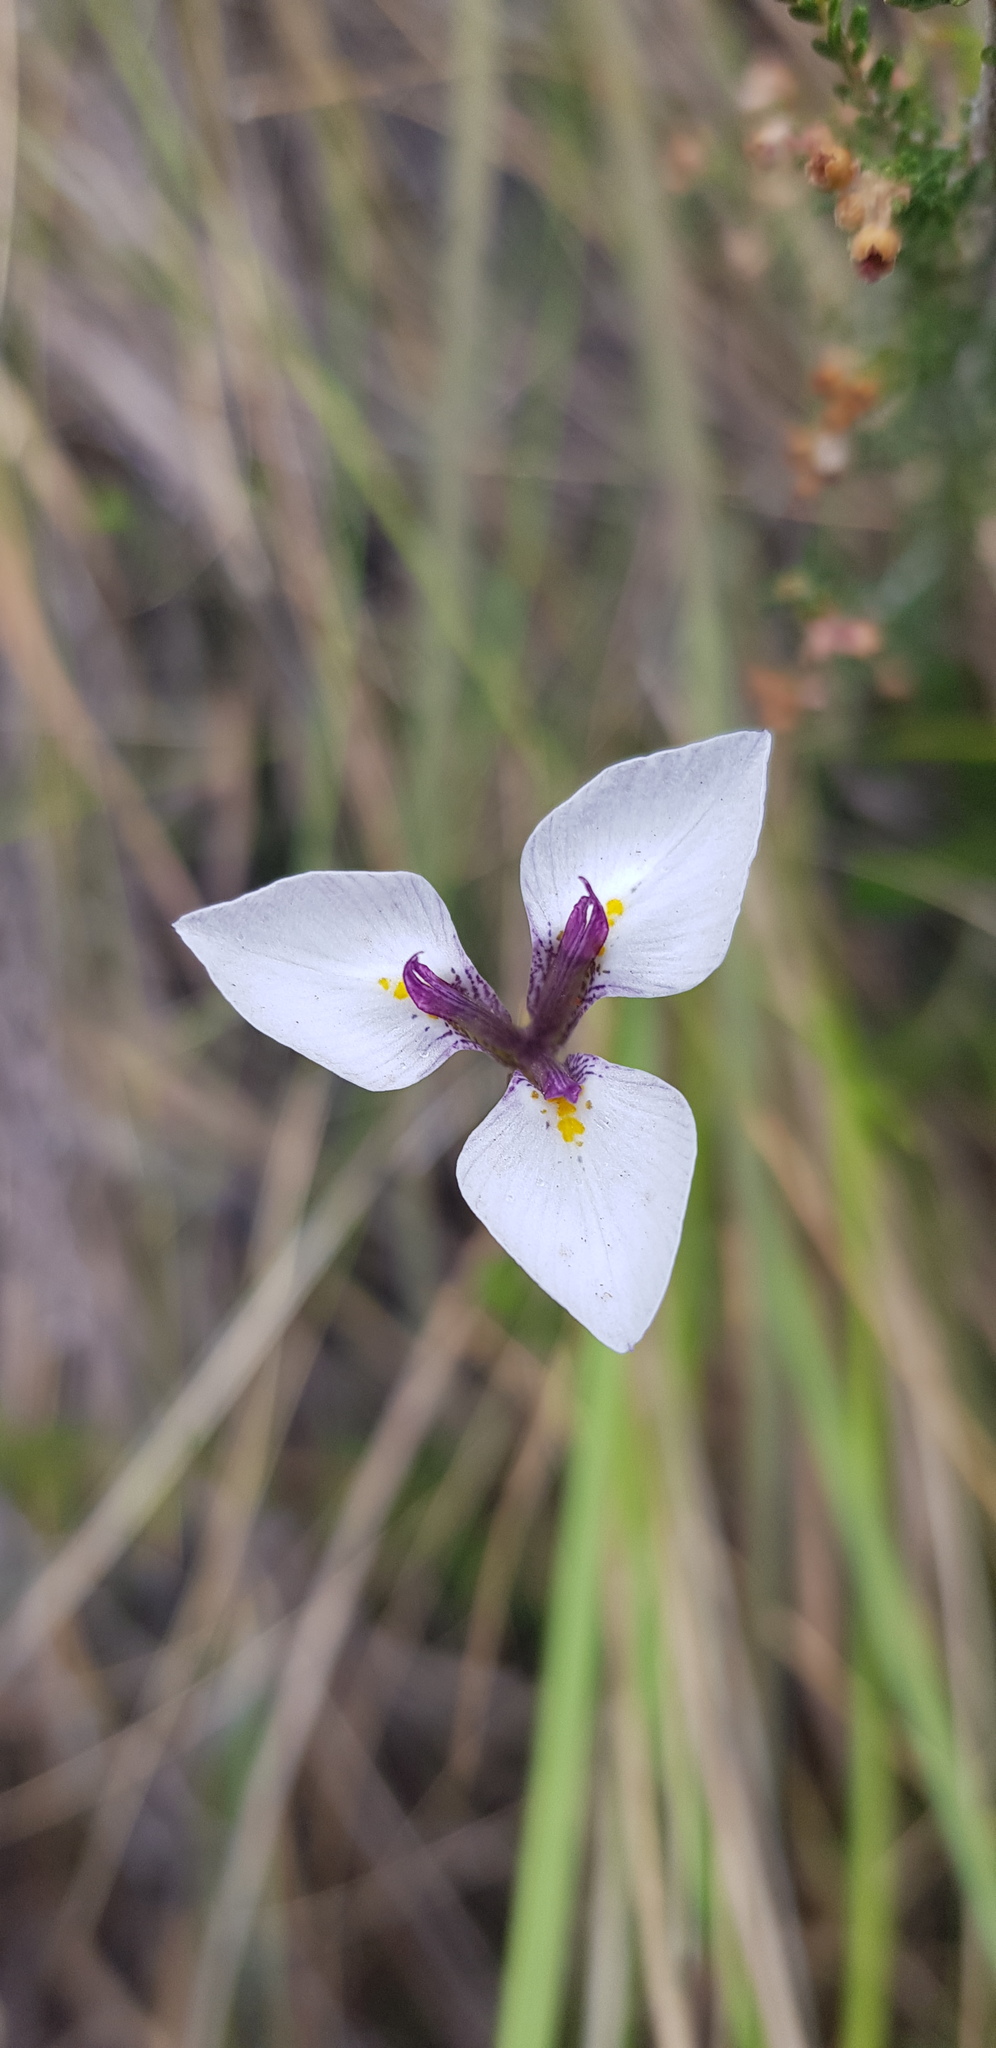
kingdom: Plantae
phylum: Tracheophyta
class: Liliopsida
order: Asparagales
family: Iridaceae
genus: Moraea
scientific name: Moraea modesta
